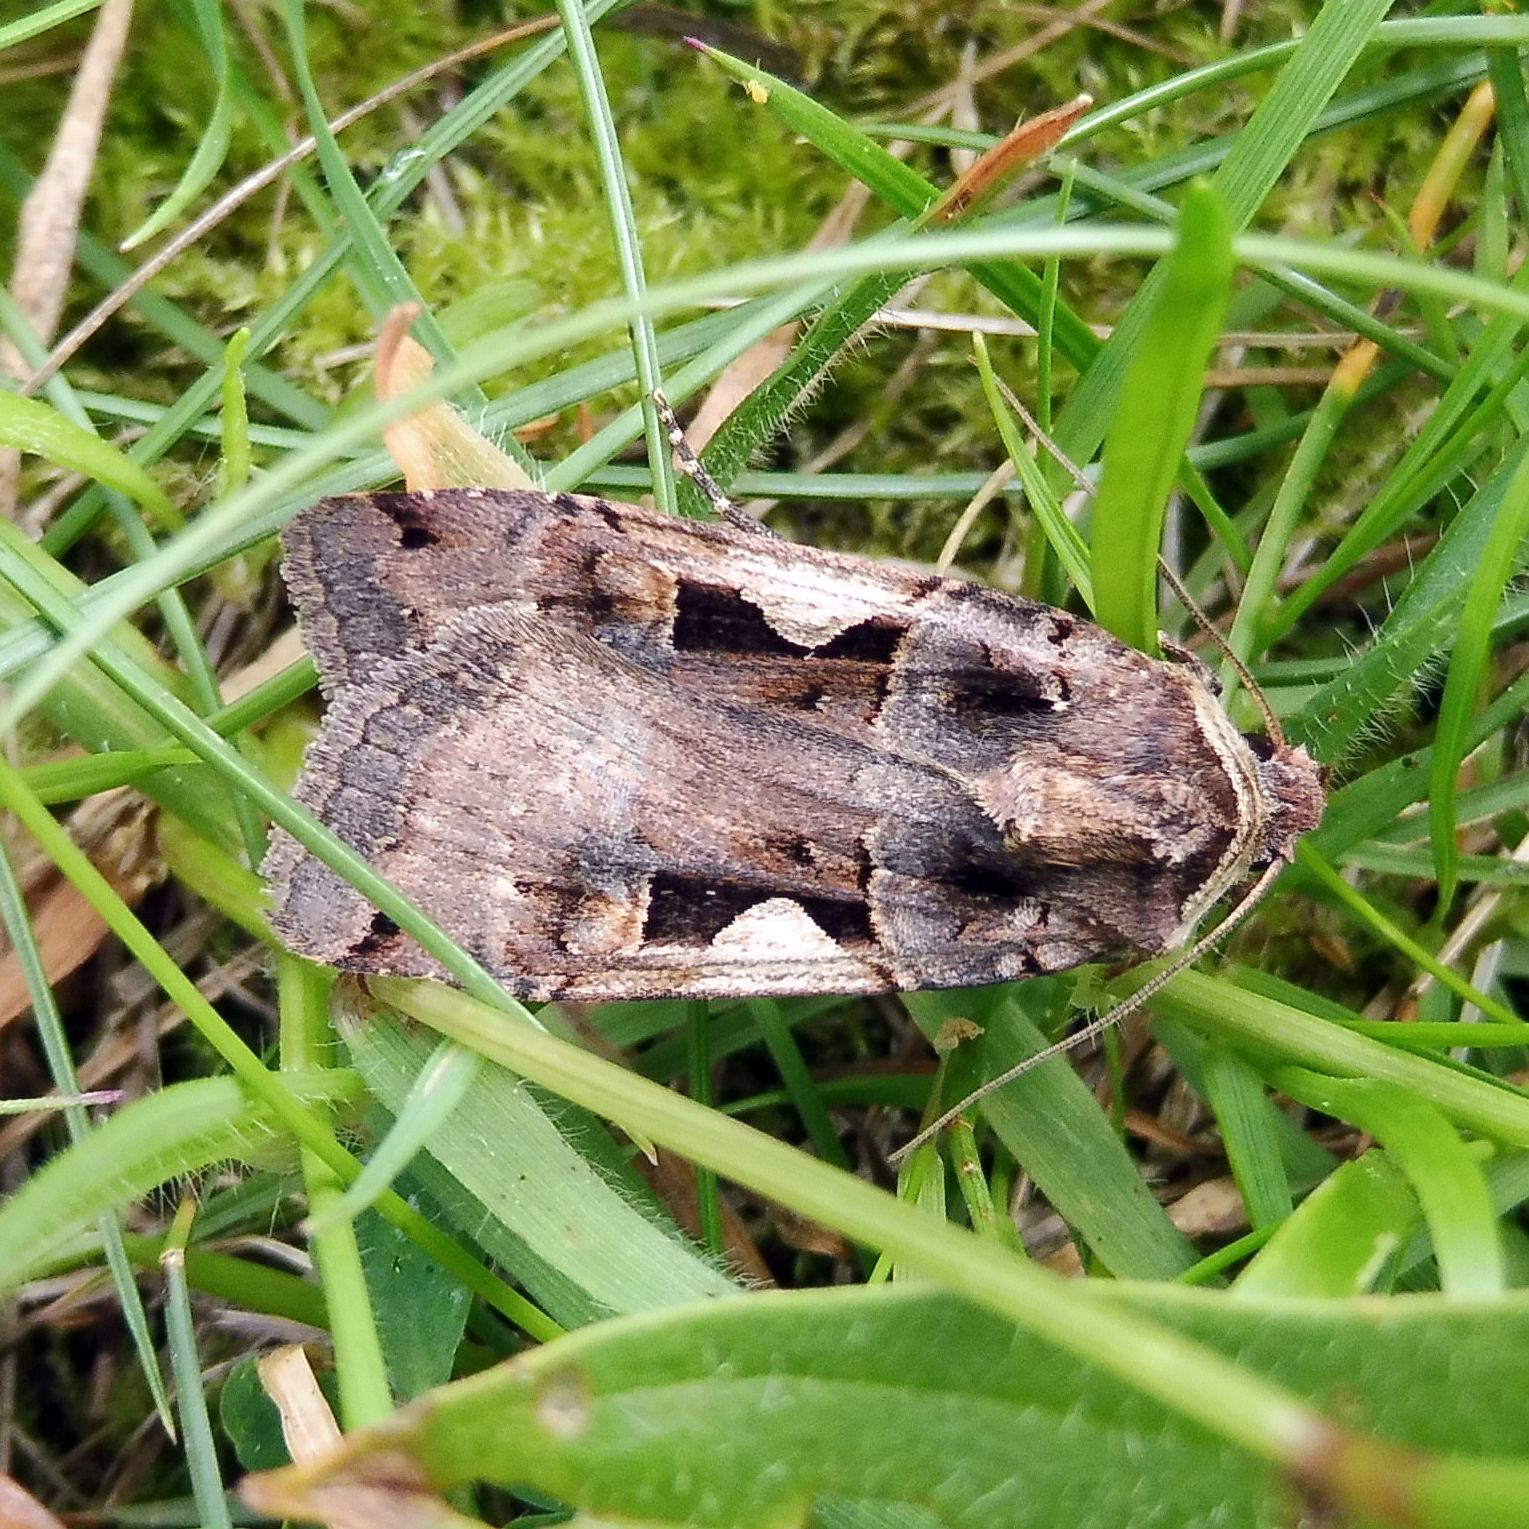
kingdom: Animalia
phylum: Arthropoda
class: Insecta
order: Lepidoptera
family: Noctuidae
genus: Xestia
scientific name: Xestia c-nigrum
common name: Setaceous hebrew character
